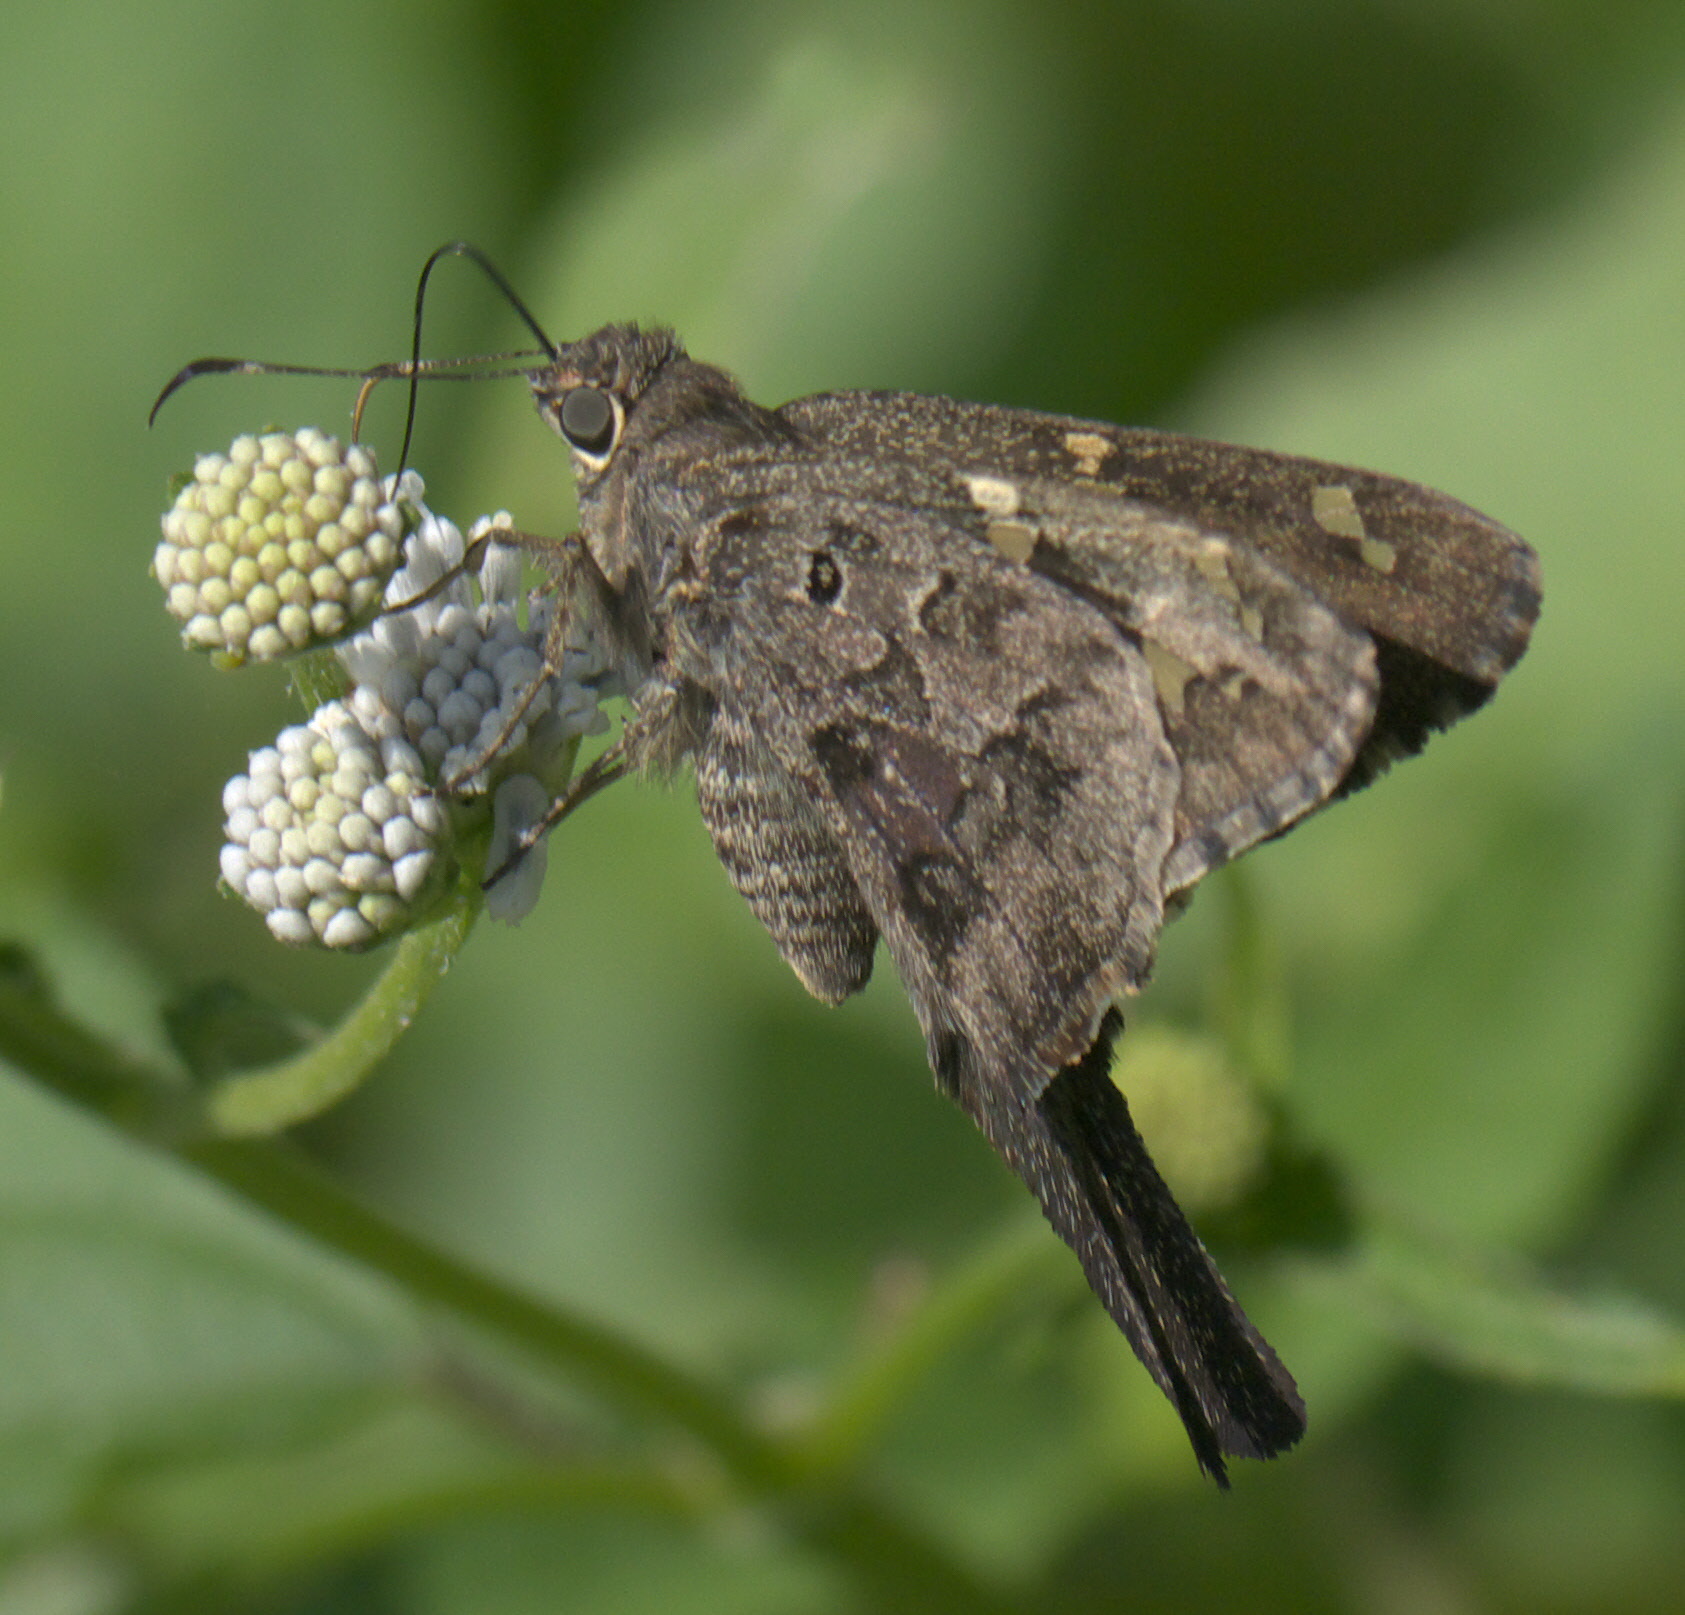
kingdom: Animalia
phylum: Arthropoda
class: Insecta
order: Lepidoptera
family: Hesperiidae
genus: Thorybes
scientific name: Thorybes
